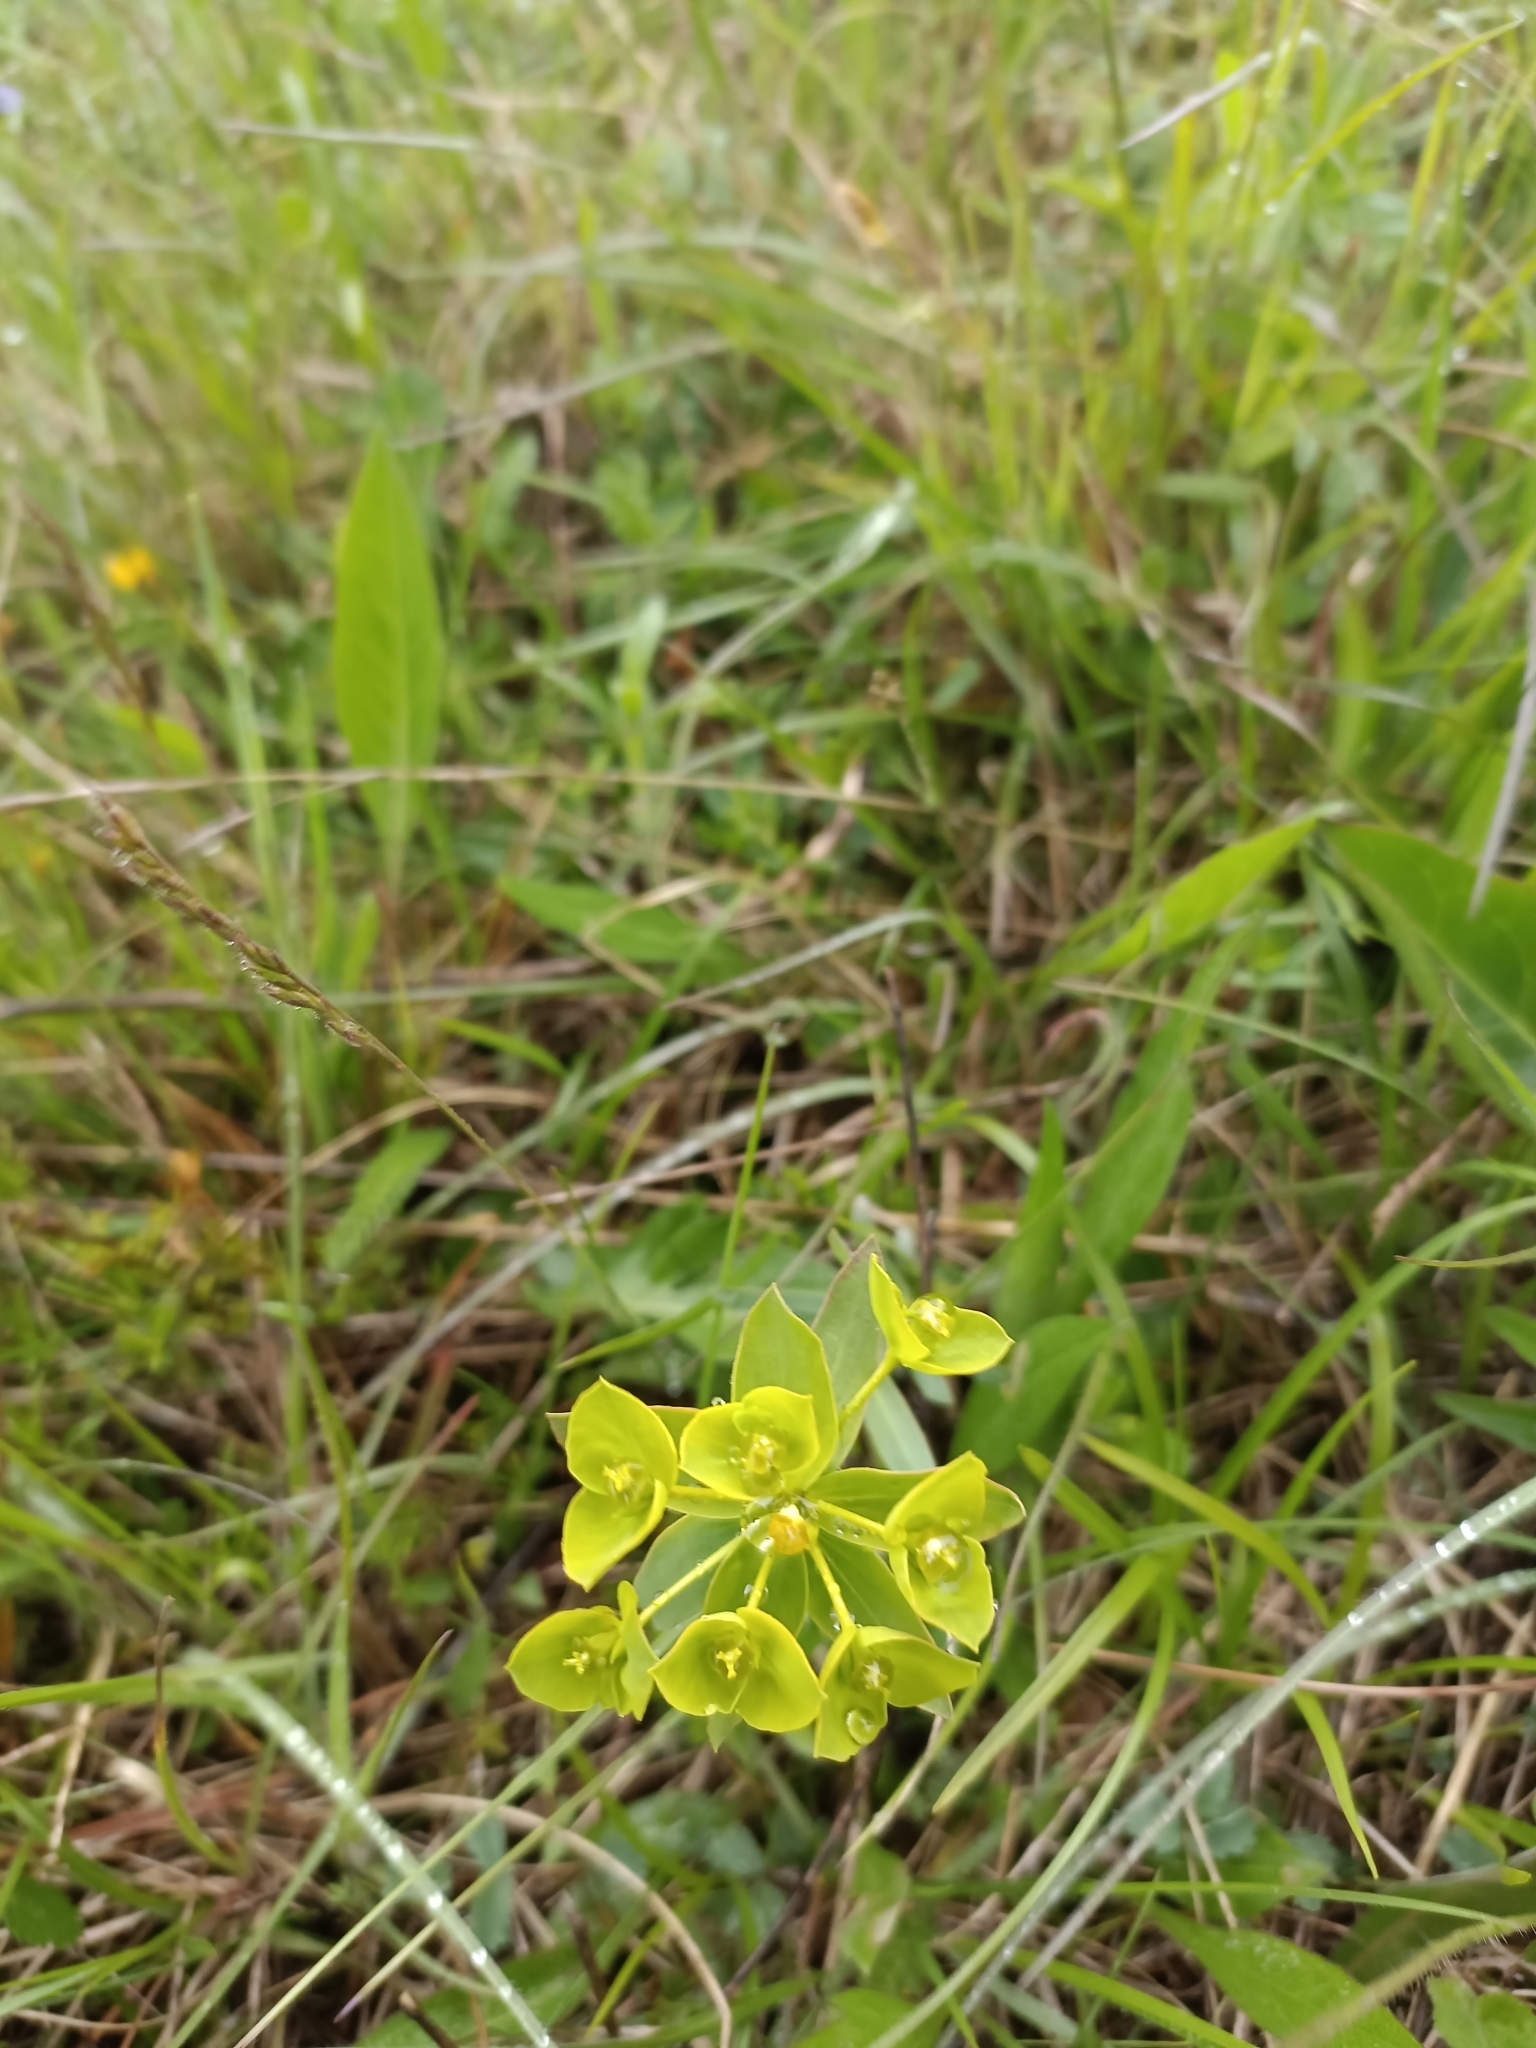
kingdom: Plantae
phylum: Tracheophyta
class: Magnoliopsida
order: Malpighiales
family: Euphorbiaceae
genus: Euphorbia
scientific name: Euphorbia seguieriana
